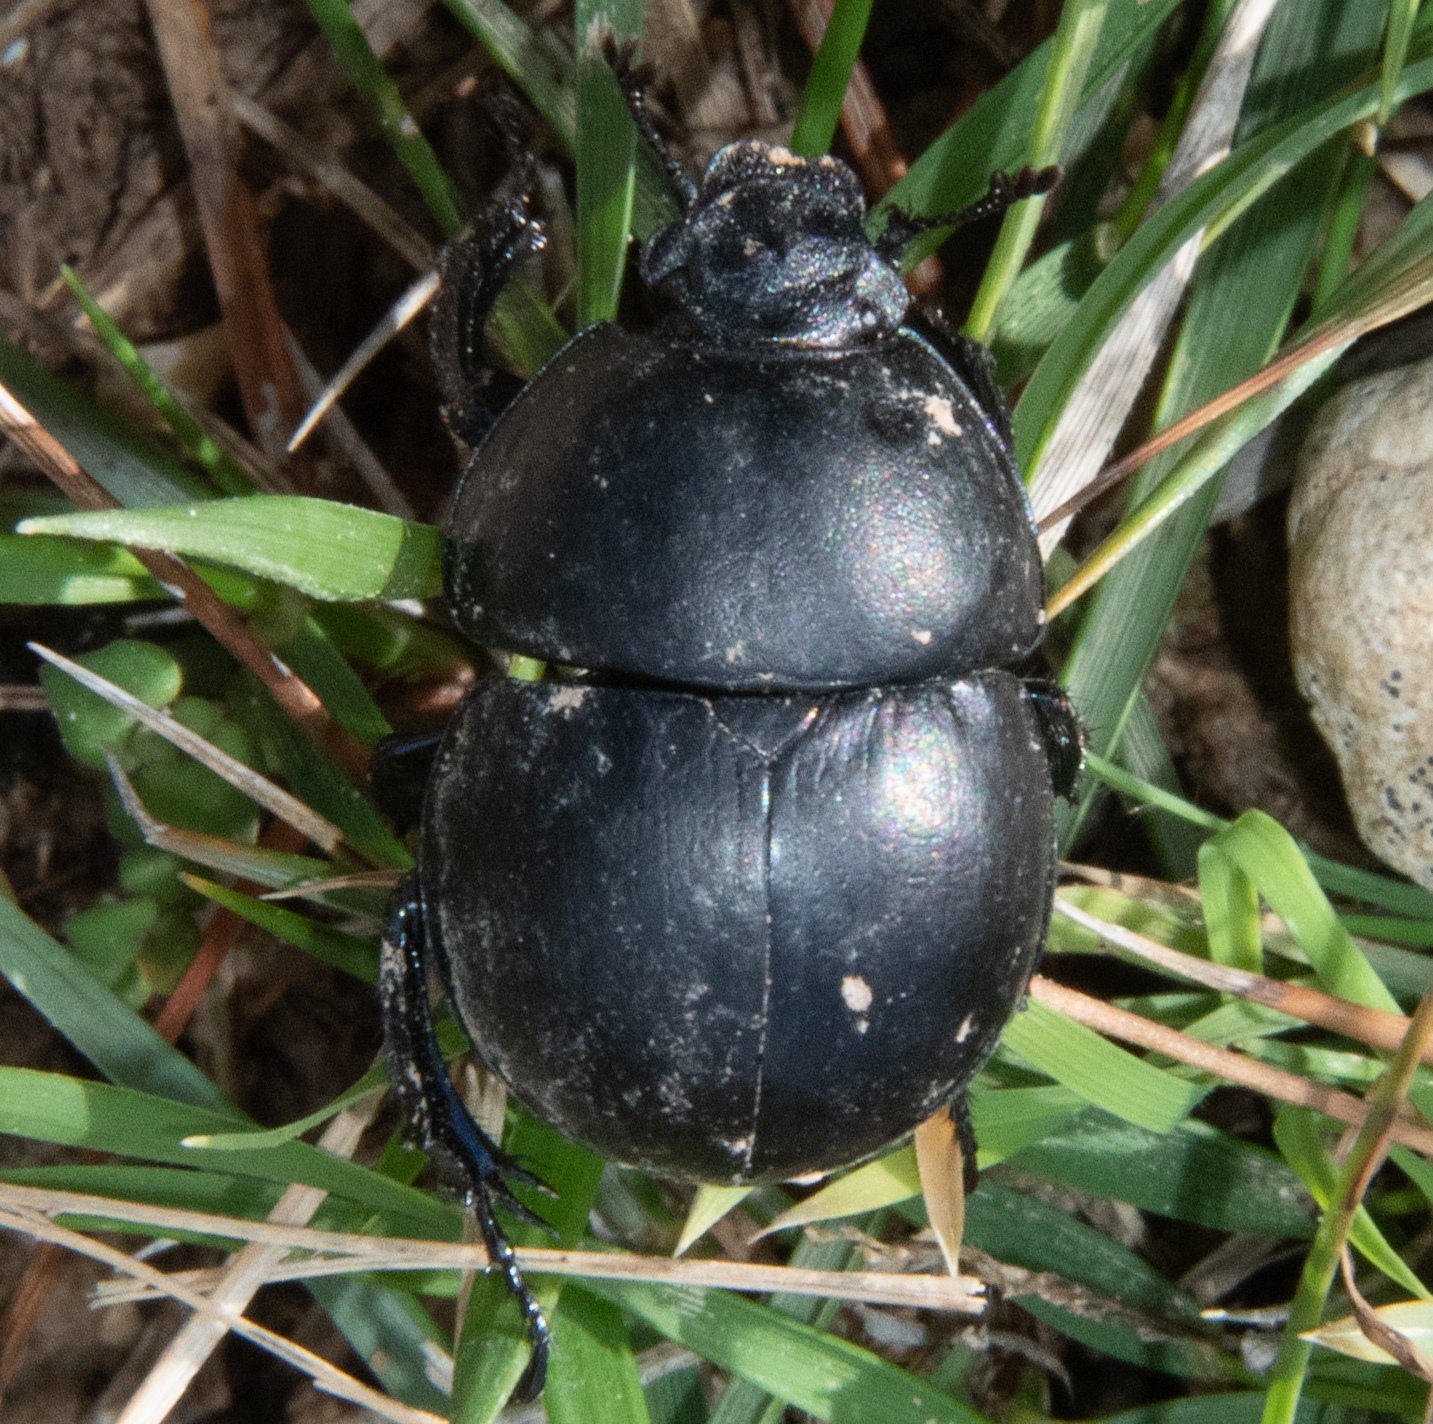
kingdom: Animalia
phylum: Arthropoda
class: Insecta
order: Coleoptera
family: Geotrupidae
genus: Jekelius
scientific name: Jekelius
